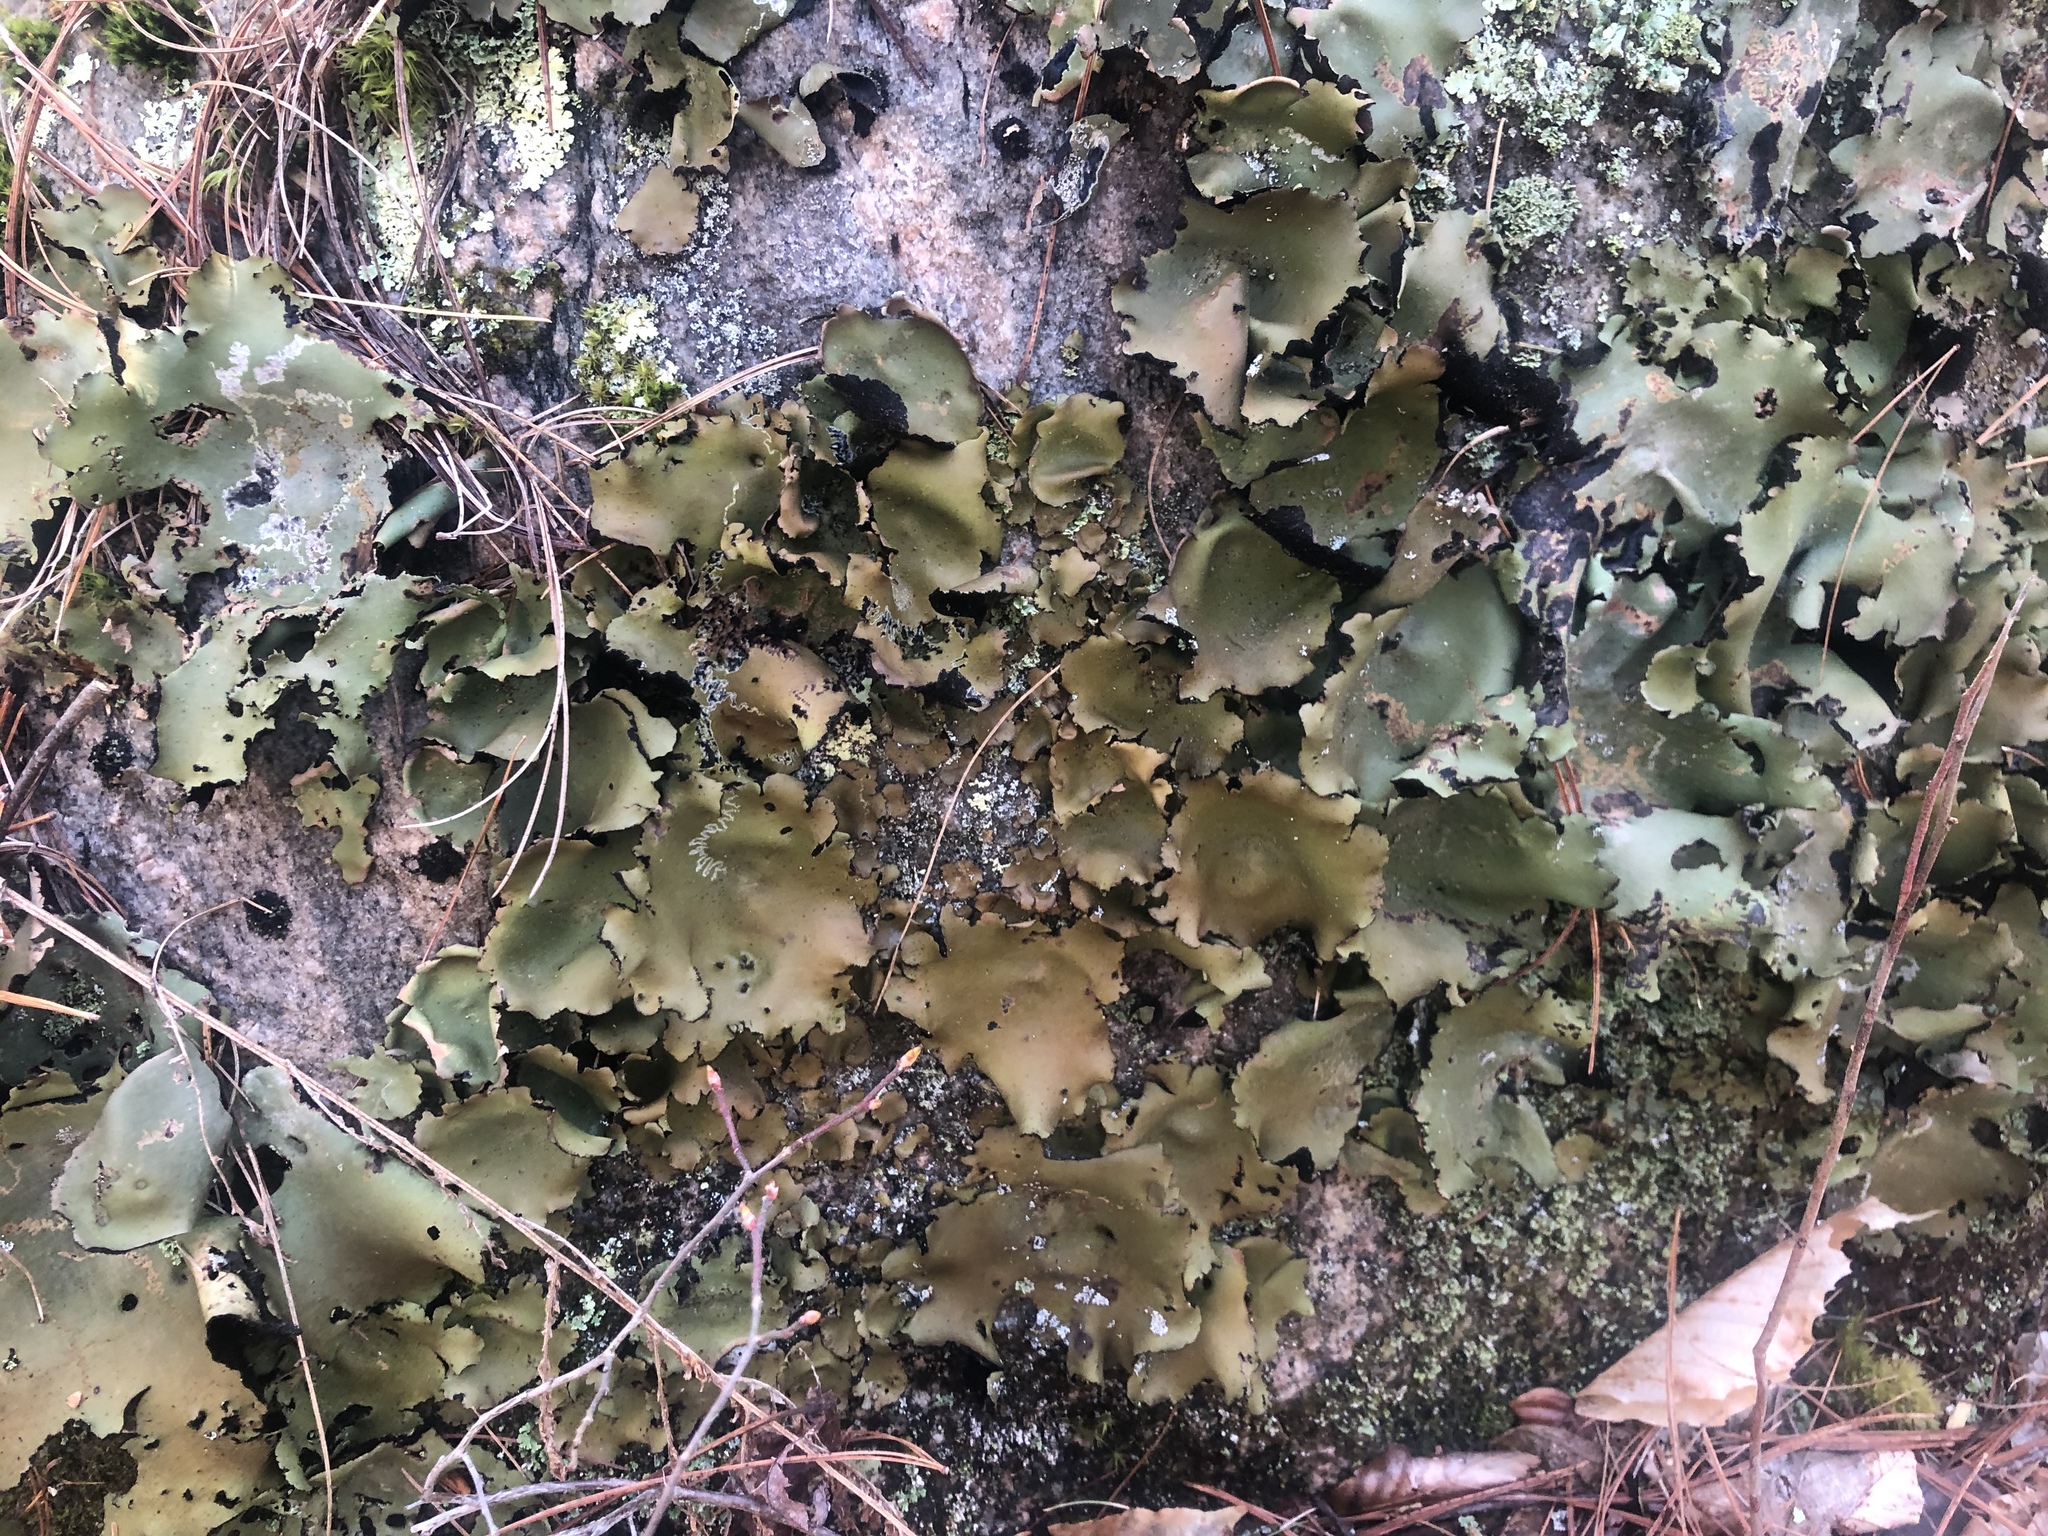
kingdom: Fungi
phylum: Ascomycota
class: Lecanoromycetes
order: Umbilicariales
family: Umbilicariaceae
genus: Umbilicaria
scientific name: Umbilicaria mammulata
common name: Smooth rock tripe
